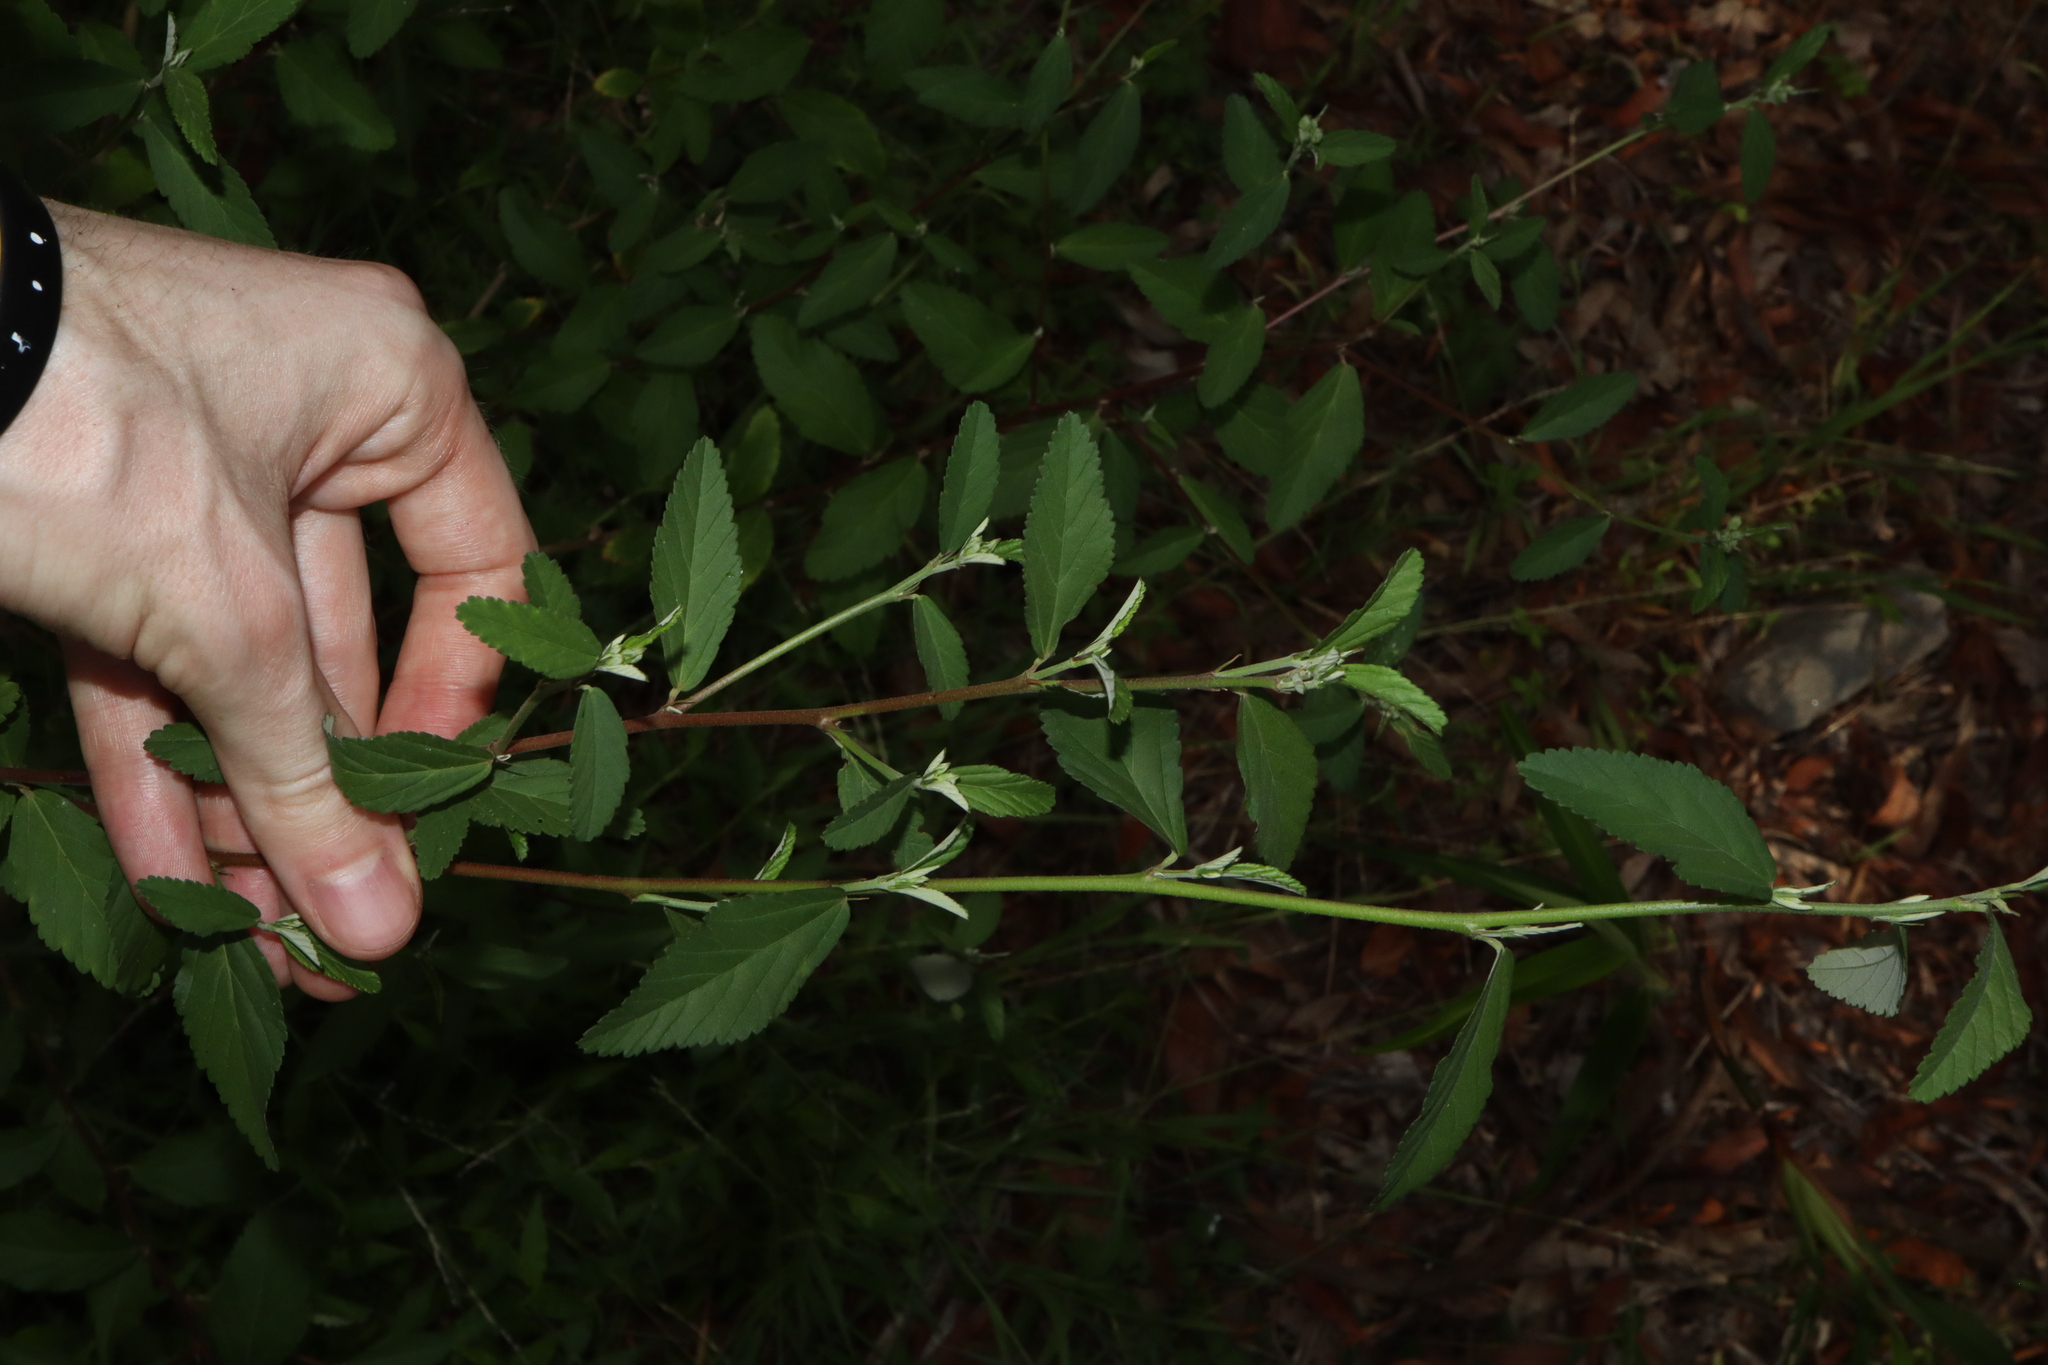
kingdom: Plantae
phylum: Tracheophyta
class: Magnoliopsida
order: Malvales
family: Malvaceae
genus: Sida
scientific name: Sida rhombifolia
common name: Queensland-hemp
